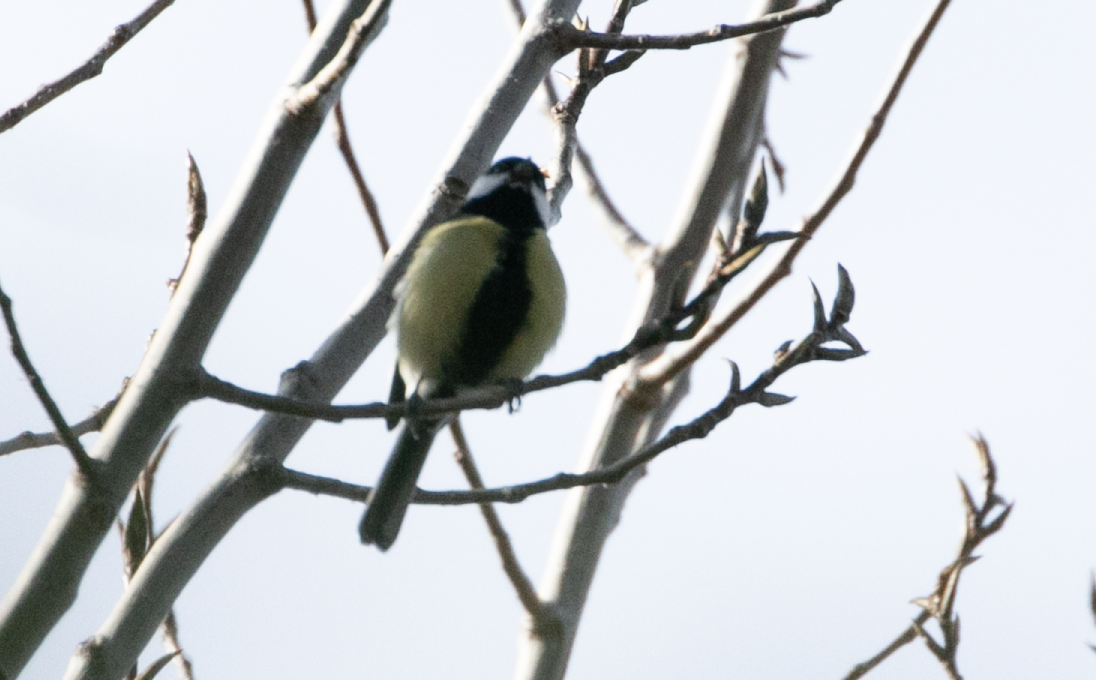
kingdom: Animalia
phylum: Chordata
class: Aves
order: Passeriformes
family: Paridae
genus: Parus
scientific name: Parus major
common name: Great tit
